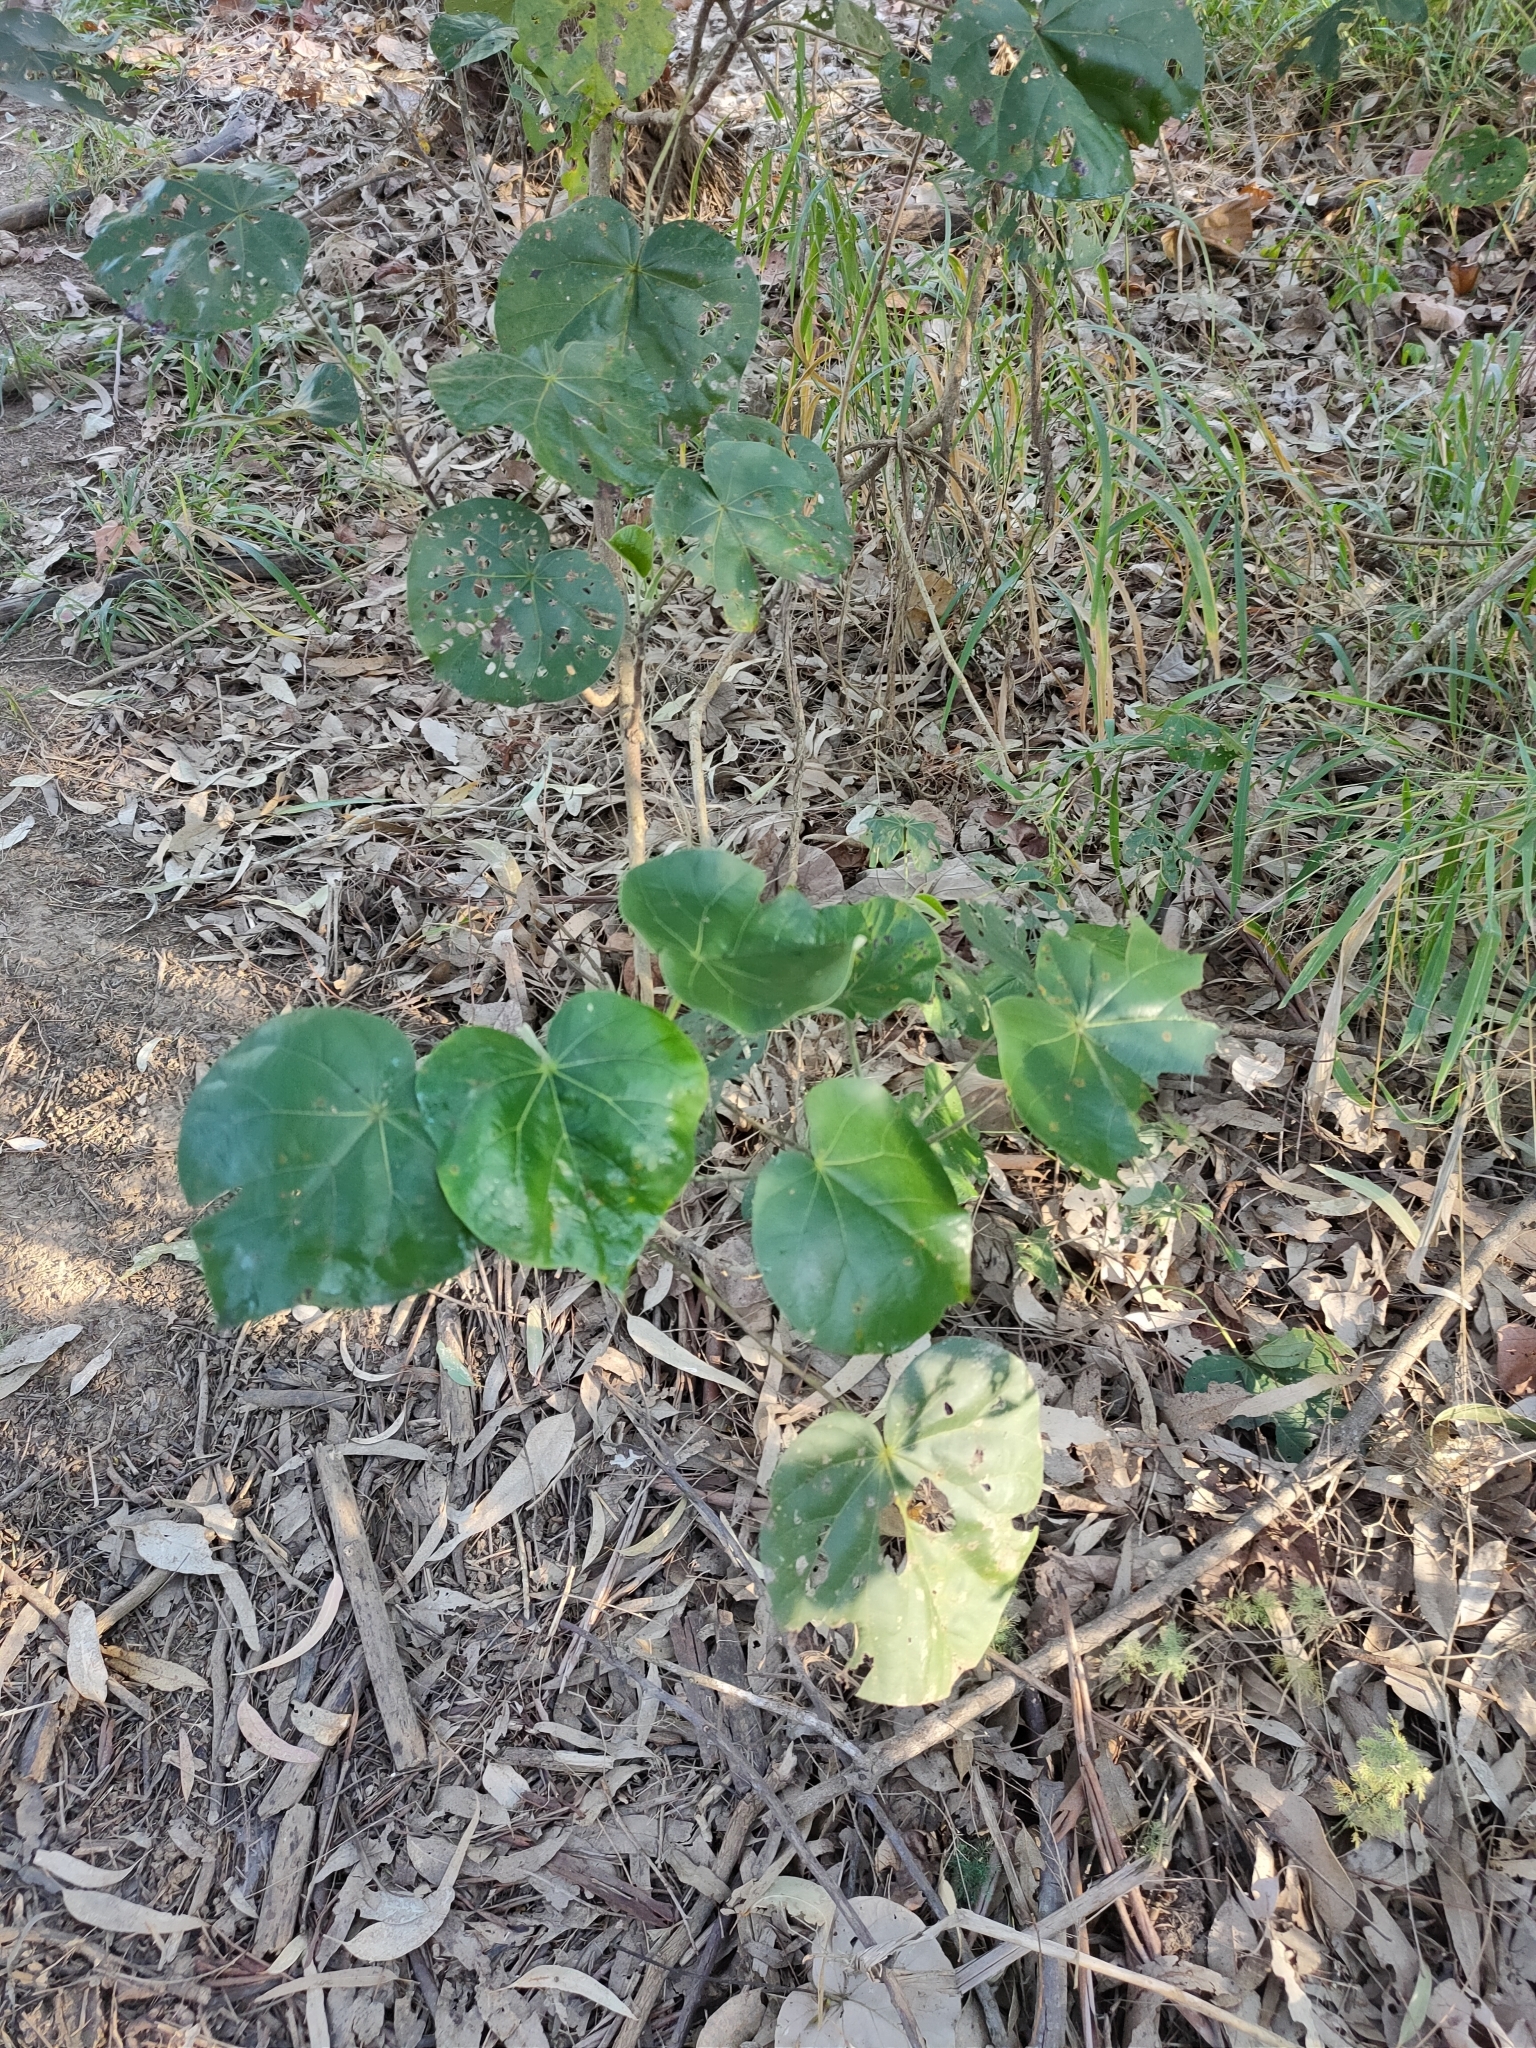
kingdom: Plantae
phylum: Tracheophyta
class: Magnoliopsida
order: Malvales
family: Malvaceae
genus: Talipariti
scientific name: Talipariti tiliaceum
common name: Sea hibiscus
